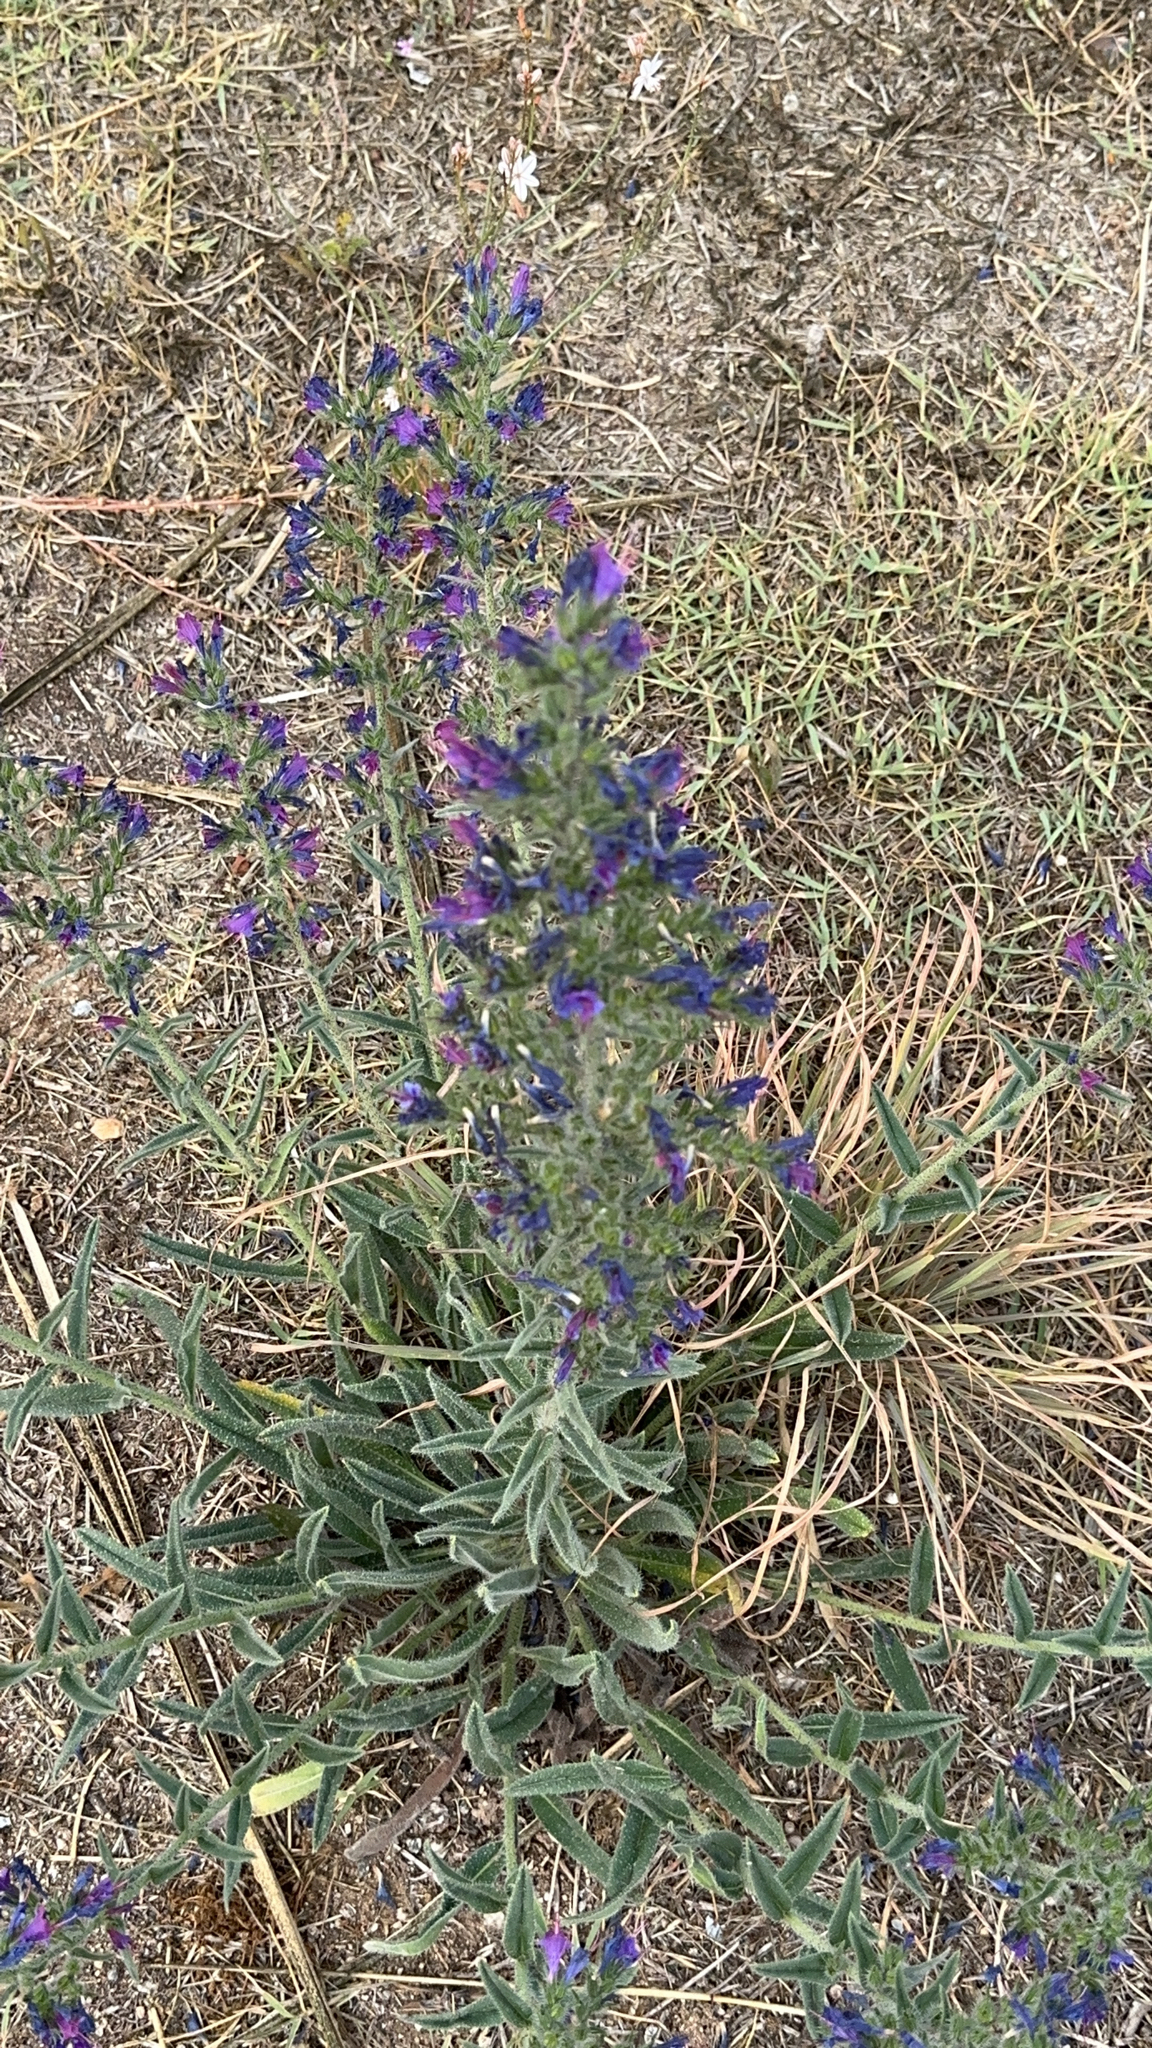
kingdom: Plantae
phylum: Tracheophyta
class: Magnoliopsida
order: Boraginales
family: Boraginaceae
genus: Echium
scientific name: Echium vulgare
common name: Common viper's bugloss
